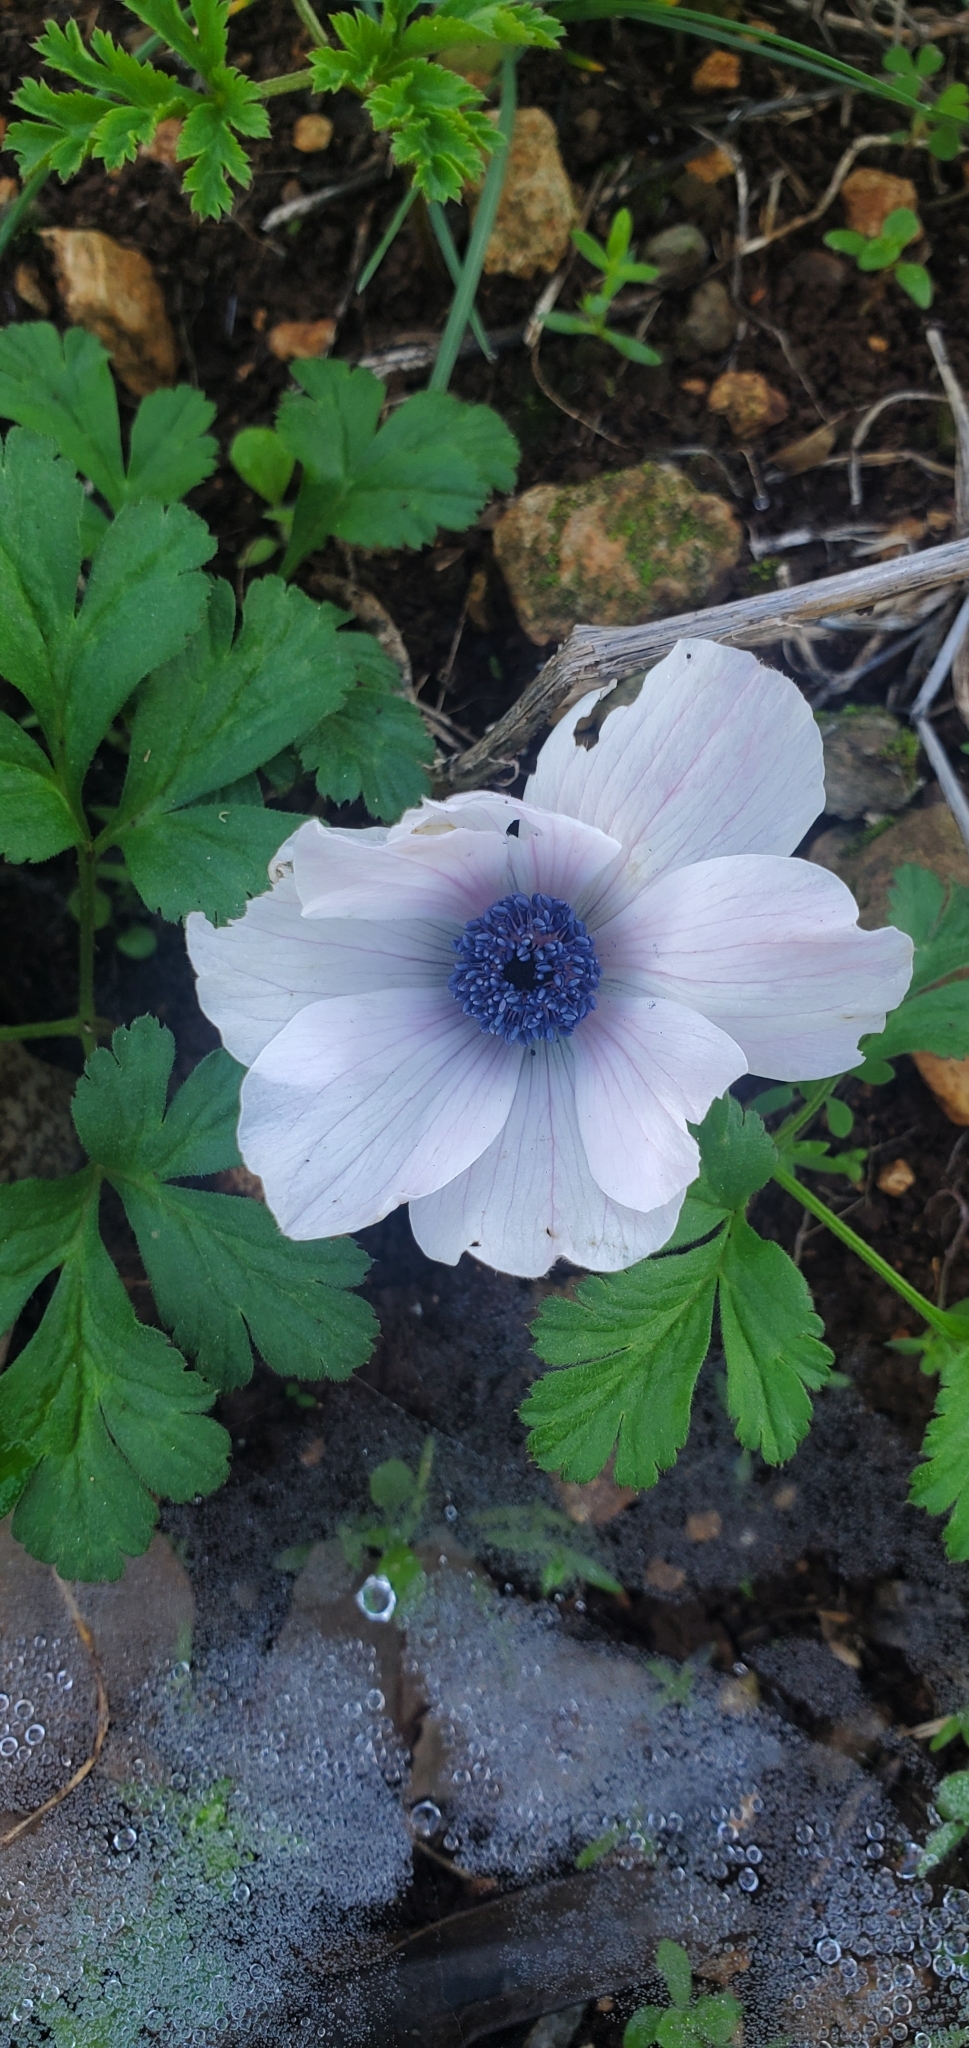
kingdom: Plantae
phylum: Tracheophyta
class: Magnoliopsida
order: Ranunculales
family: Ranunculaceae
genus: Anemone
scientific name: Anemone coronaria
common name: Poppy anemone
